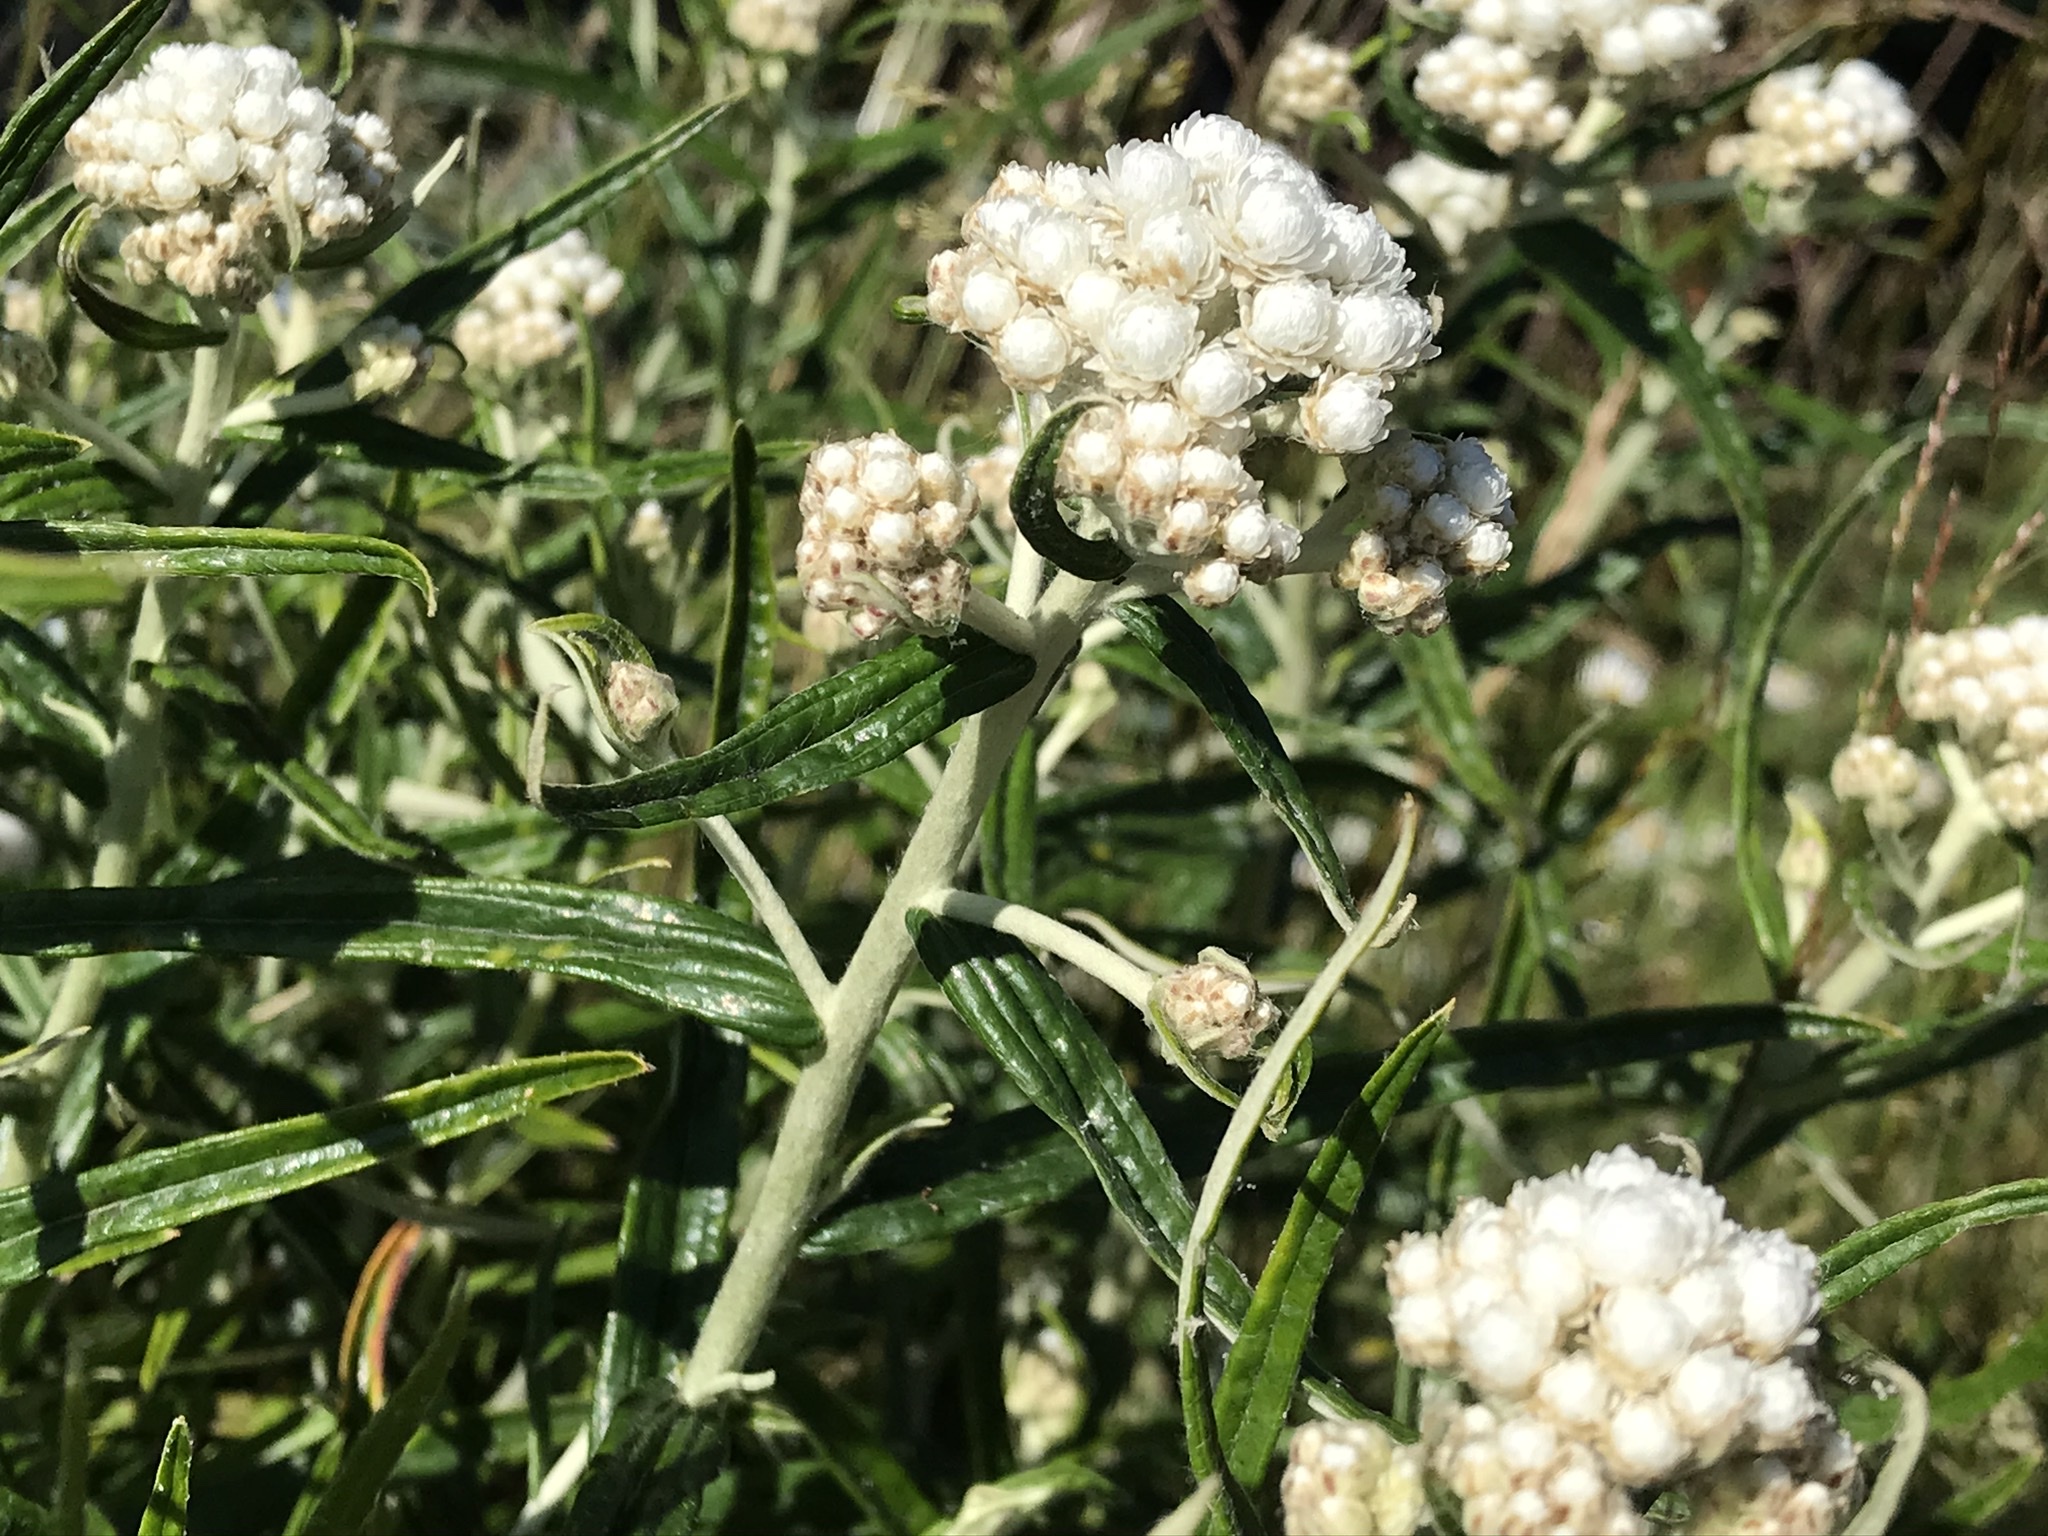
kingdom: Plantae
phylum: Tracheophyta
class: Magnoliopsida
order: Asterales
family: Asteraceae
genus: Anaphalis
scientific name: Anaphalis margaritacea
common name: Pearly everlasting
